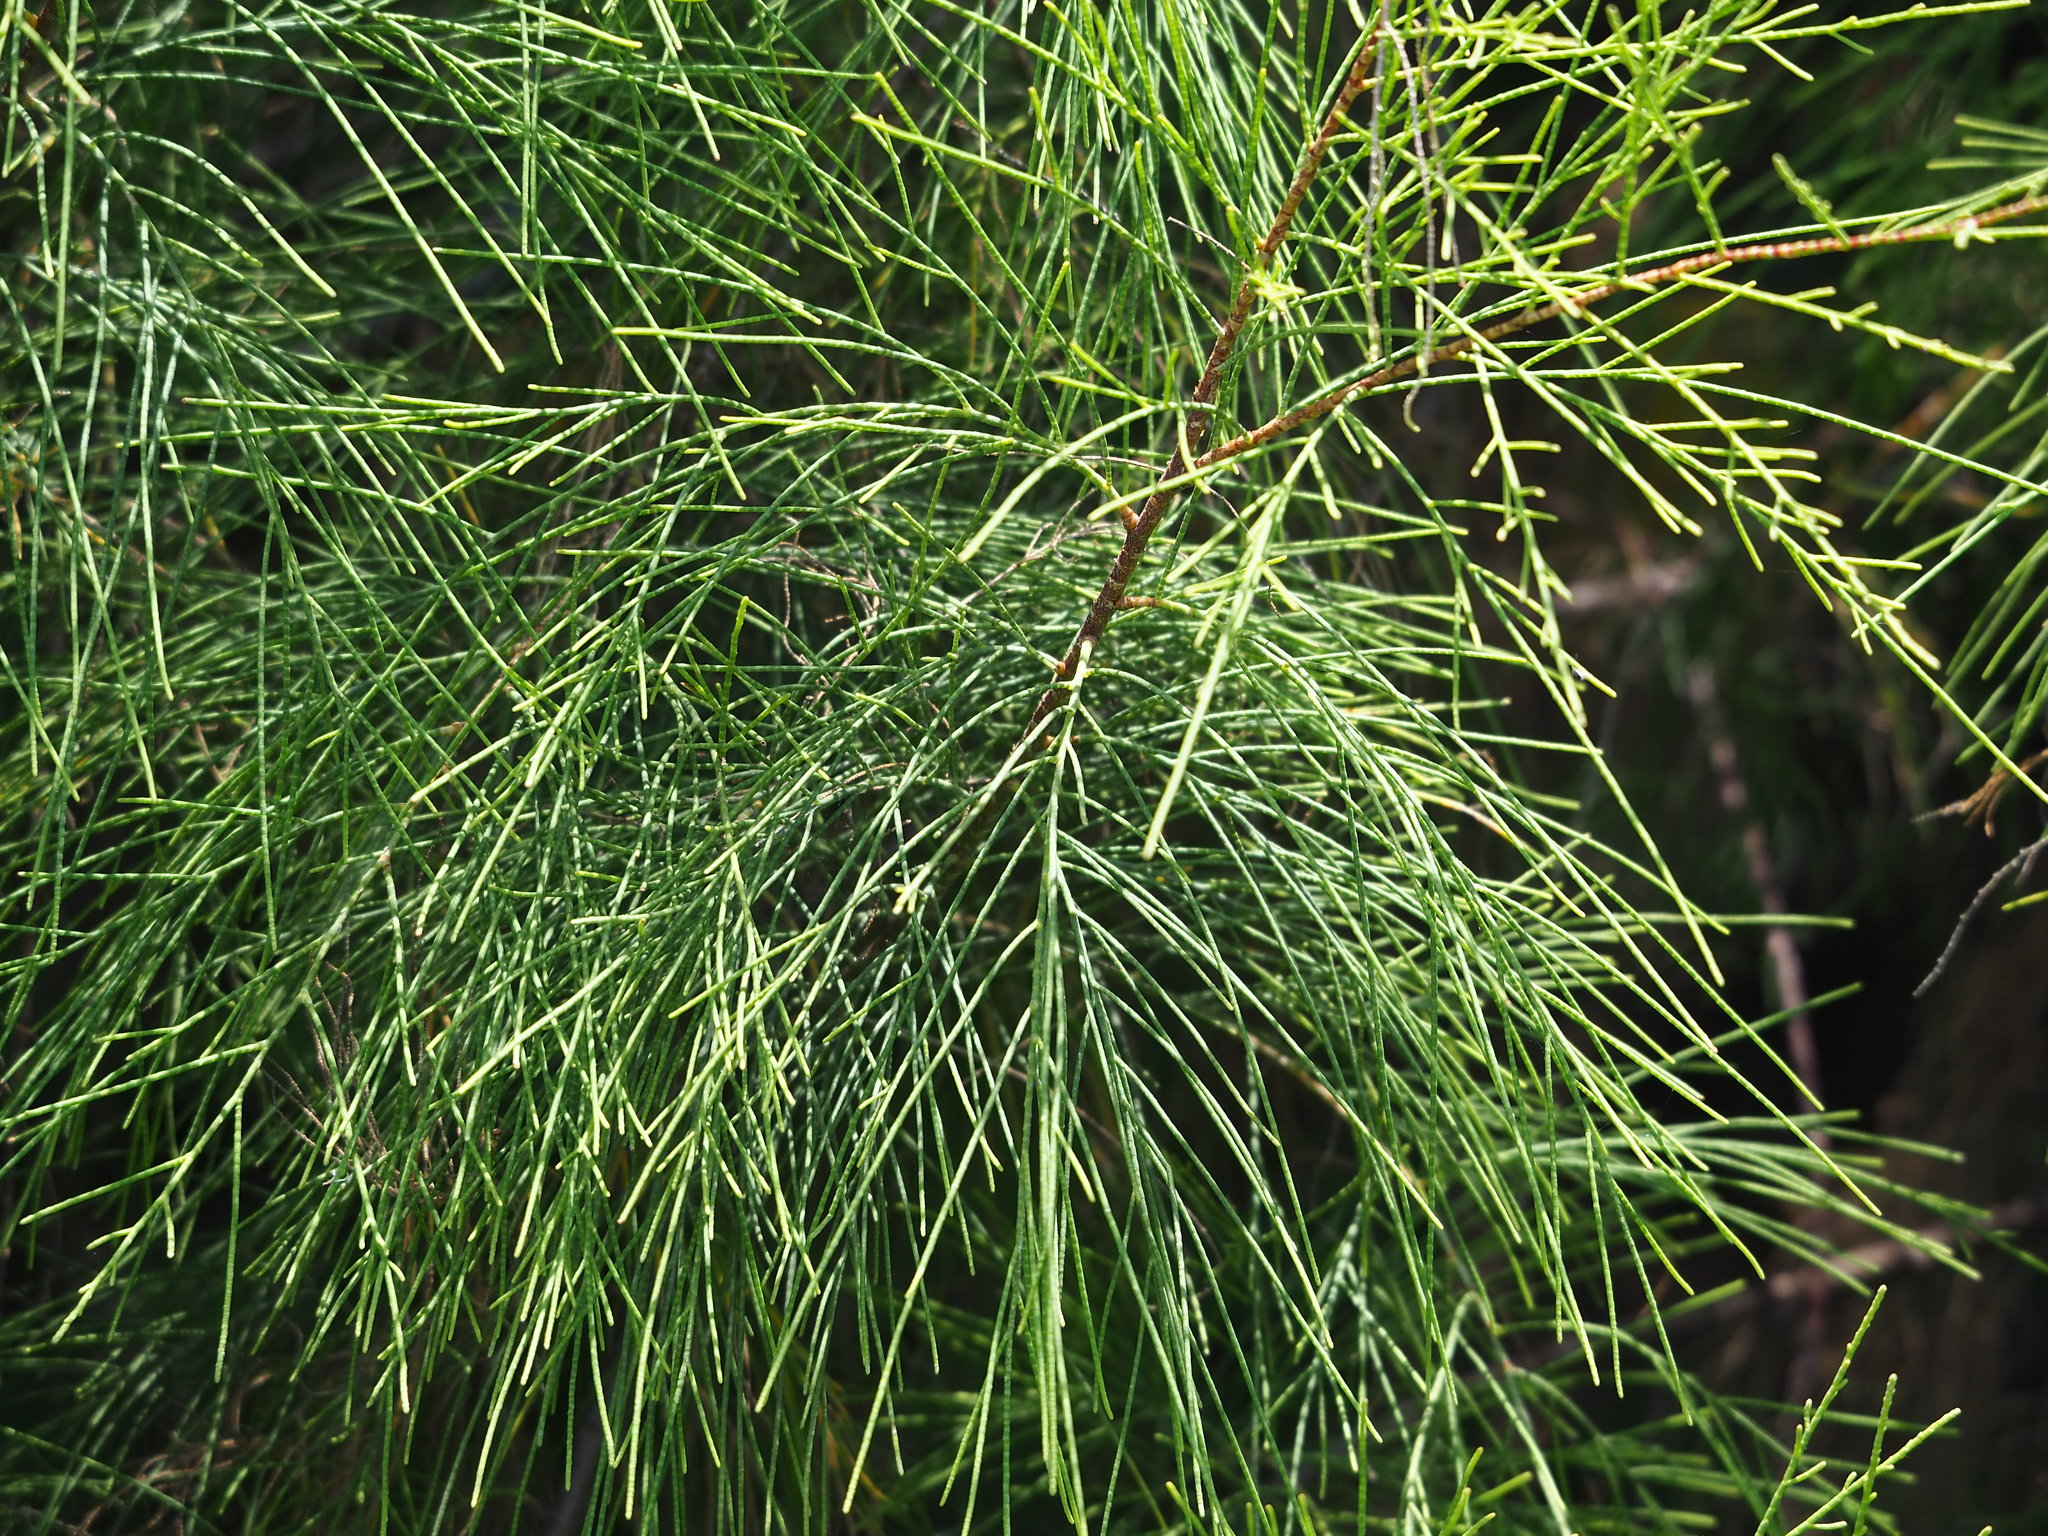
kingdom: Plantae
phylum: Tracheophyta
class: Magnoliopsida
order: Caryophyllales
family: Tamaricaceae
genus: Tamarix
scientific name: Tamarix aphylla
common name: Athel tamarisk
